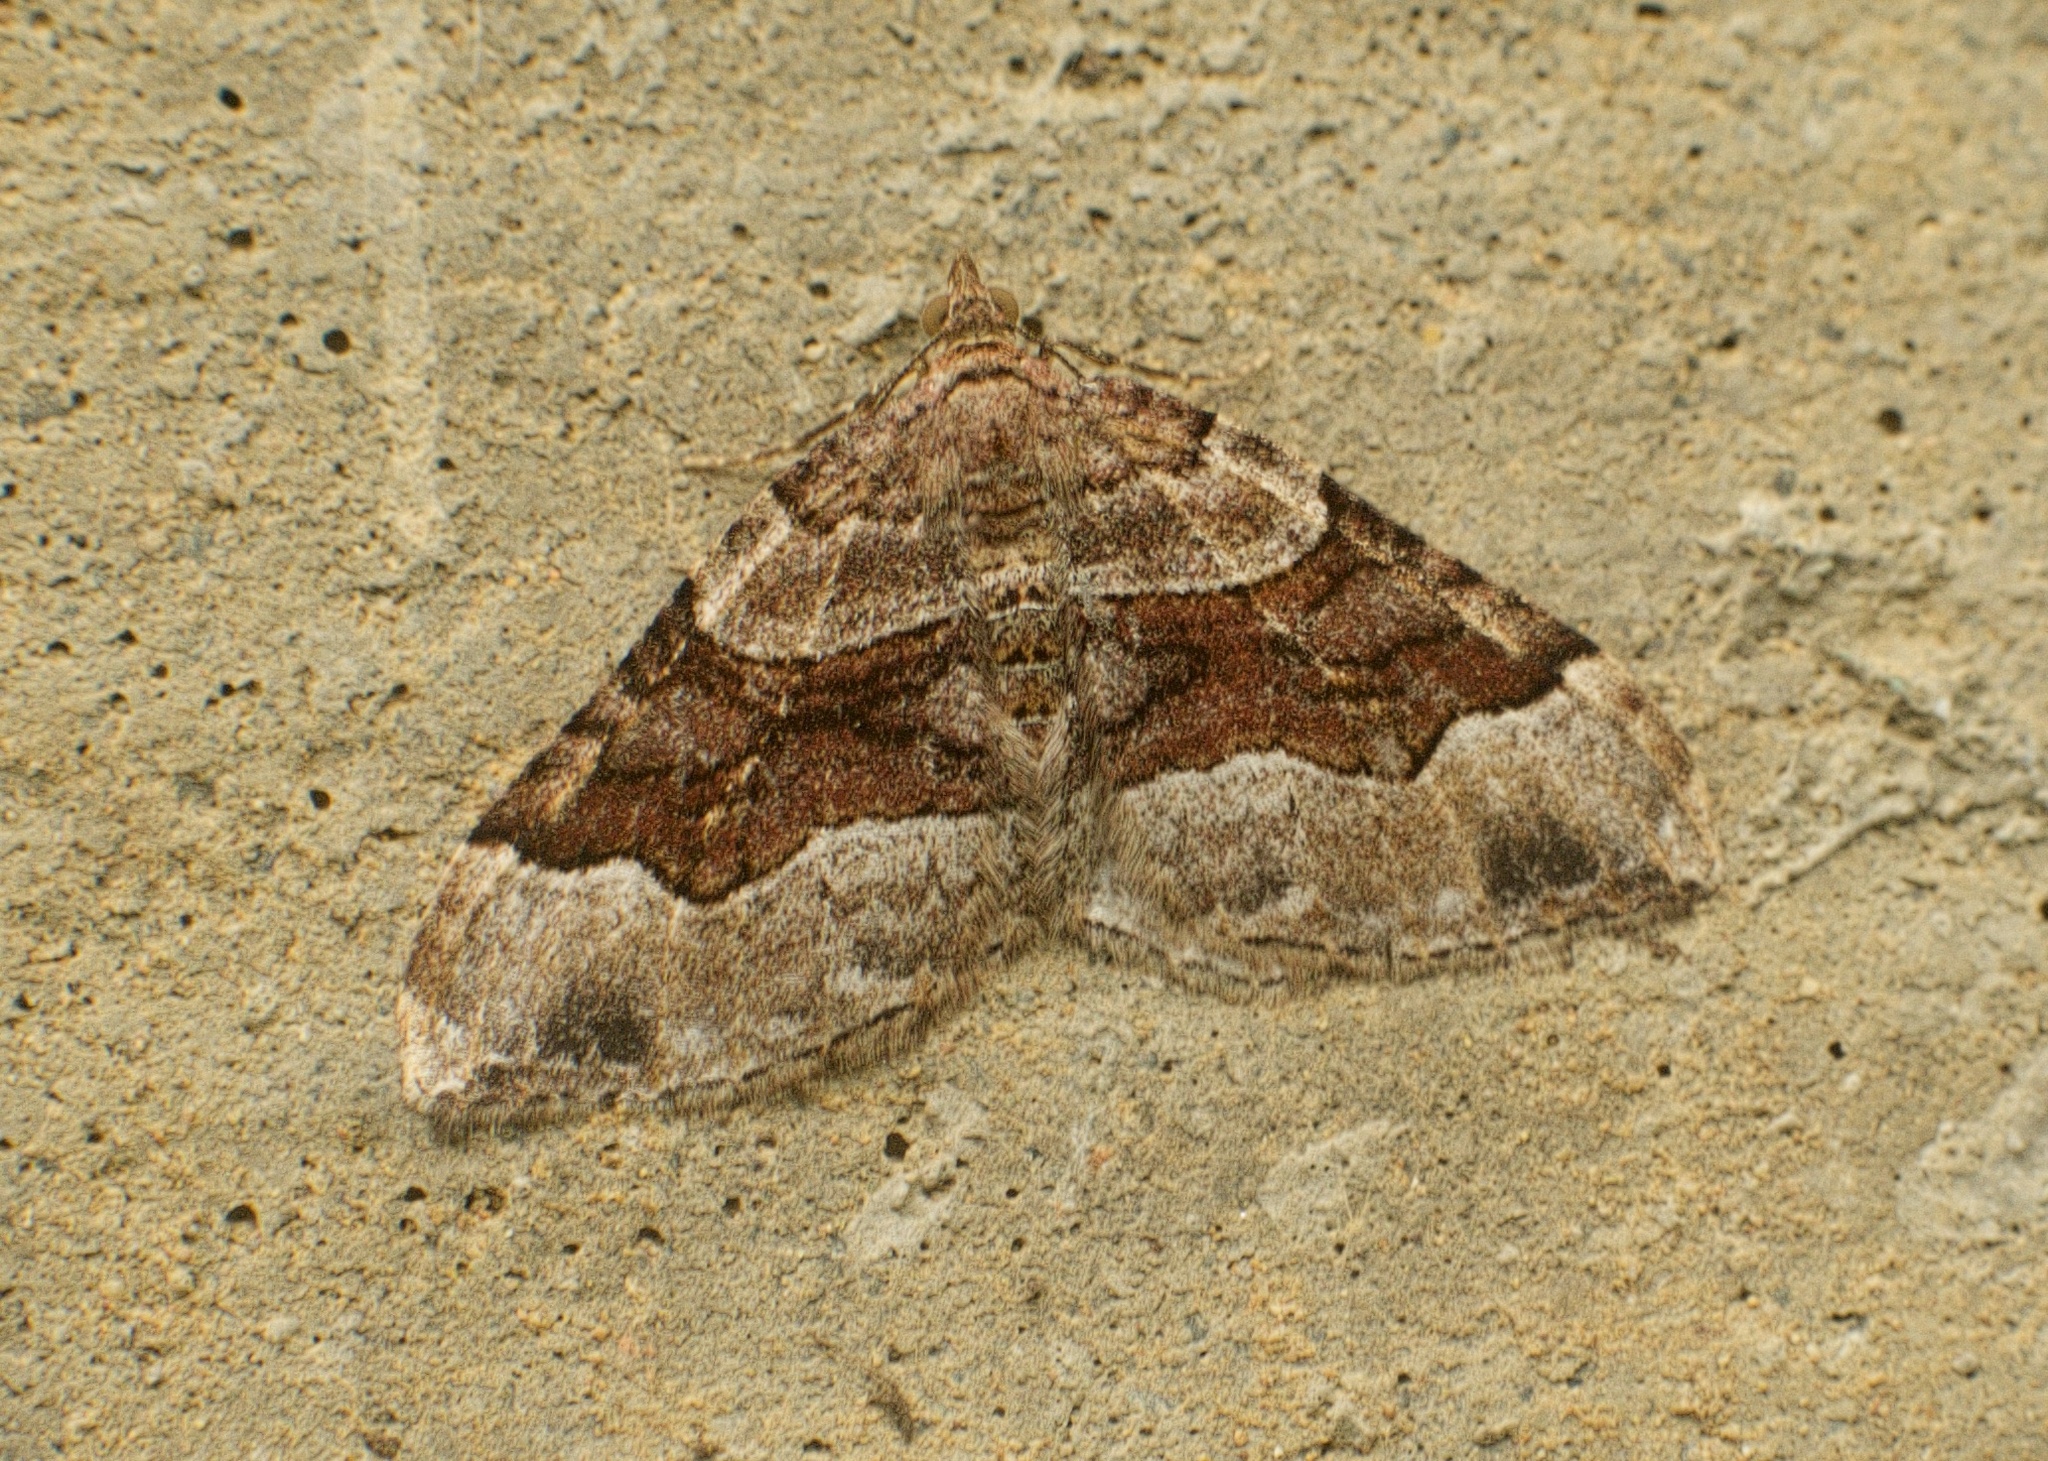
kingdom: Animalia
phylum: Arthropoda
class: Insecta
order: Lepidoptera
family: Geometridae
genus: Xanthorhoe
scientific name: Xanthorhoe defensaria
